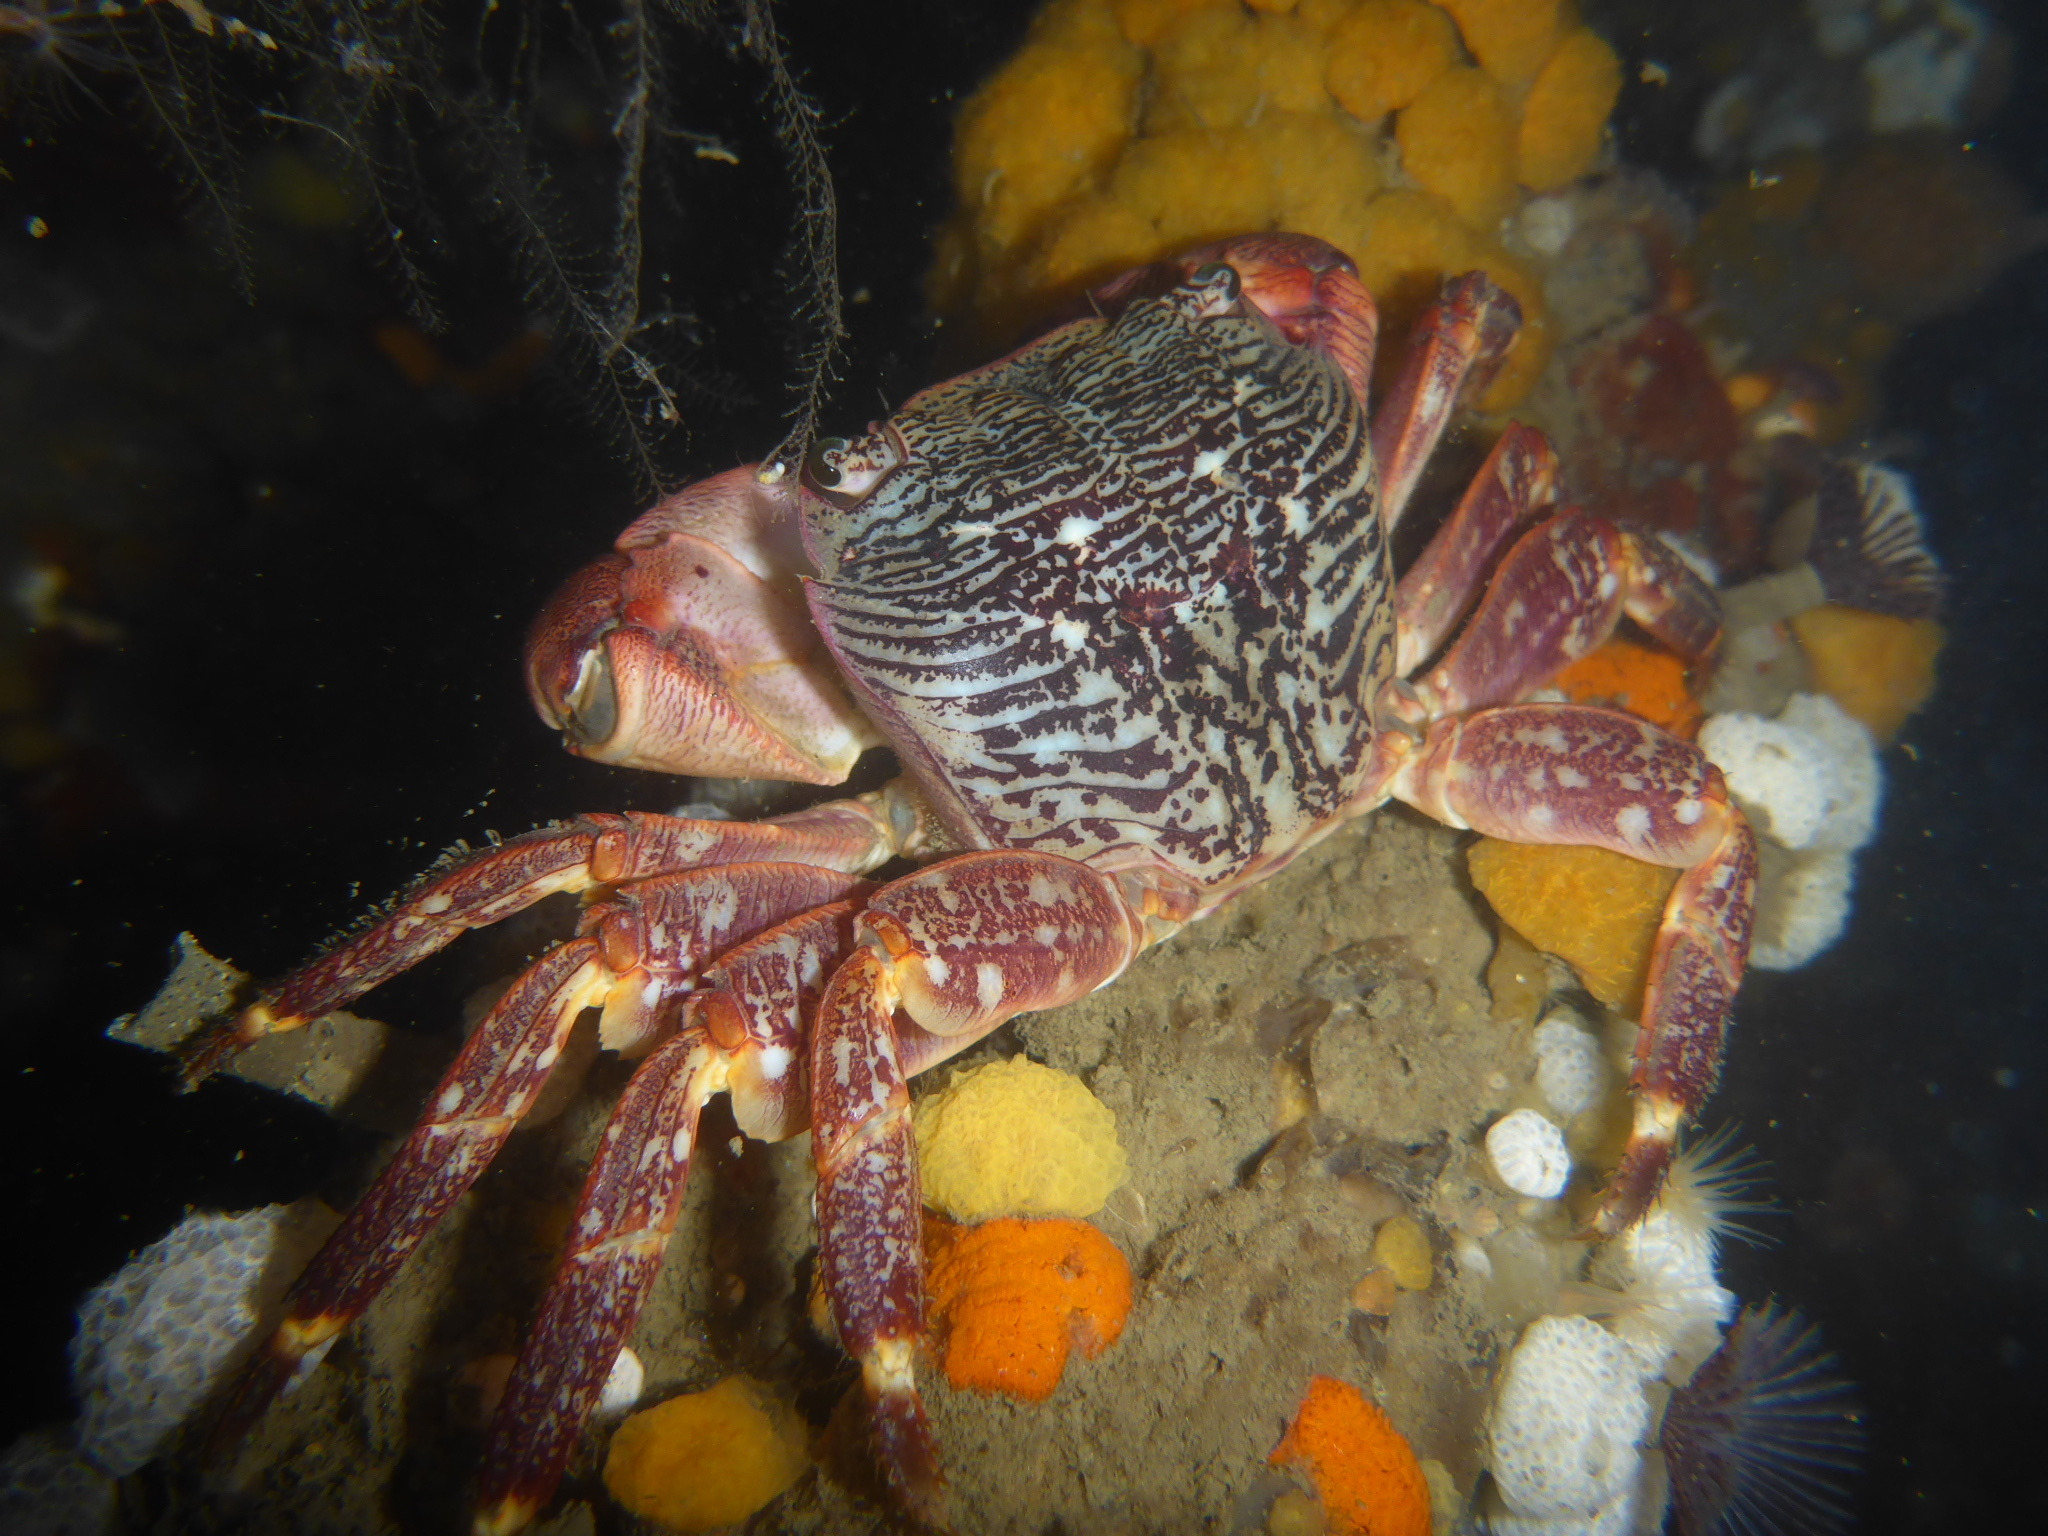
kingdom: Animalia
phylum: Arthropoda
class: Malacostraca
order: Decapoda
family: Grapsidae
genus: Pachygrapsus
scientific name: Pachygrapsus crassipes
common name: Striped shore crab
